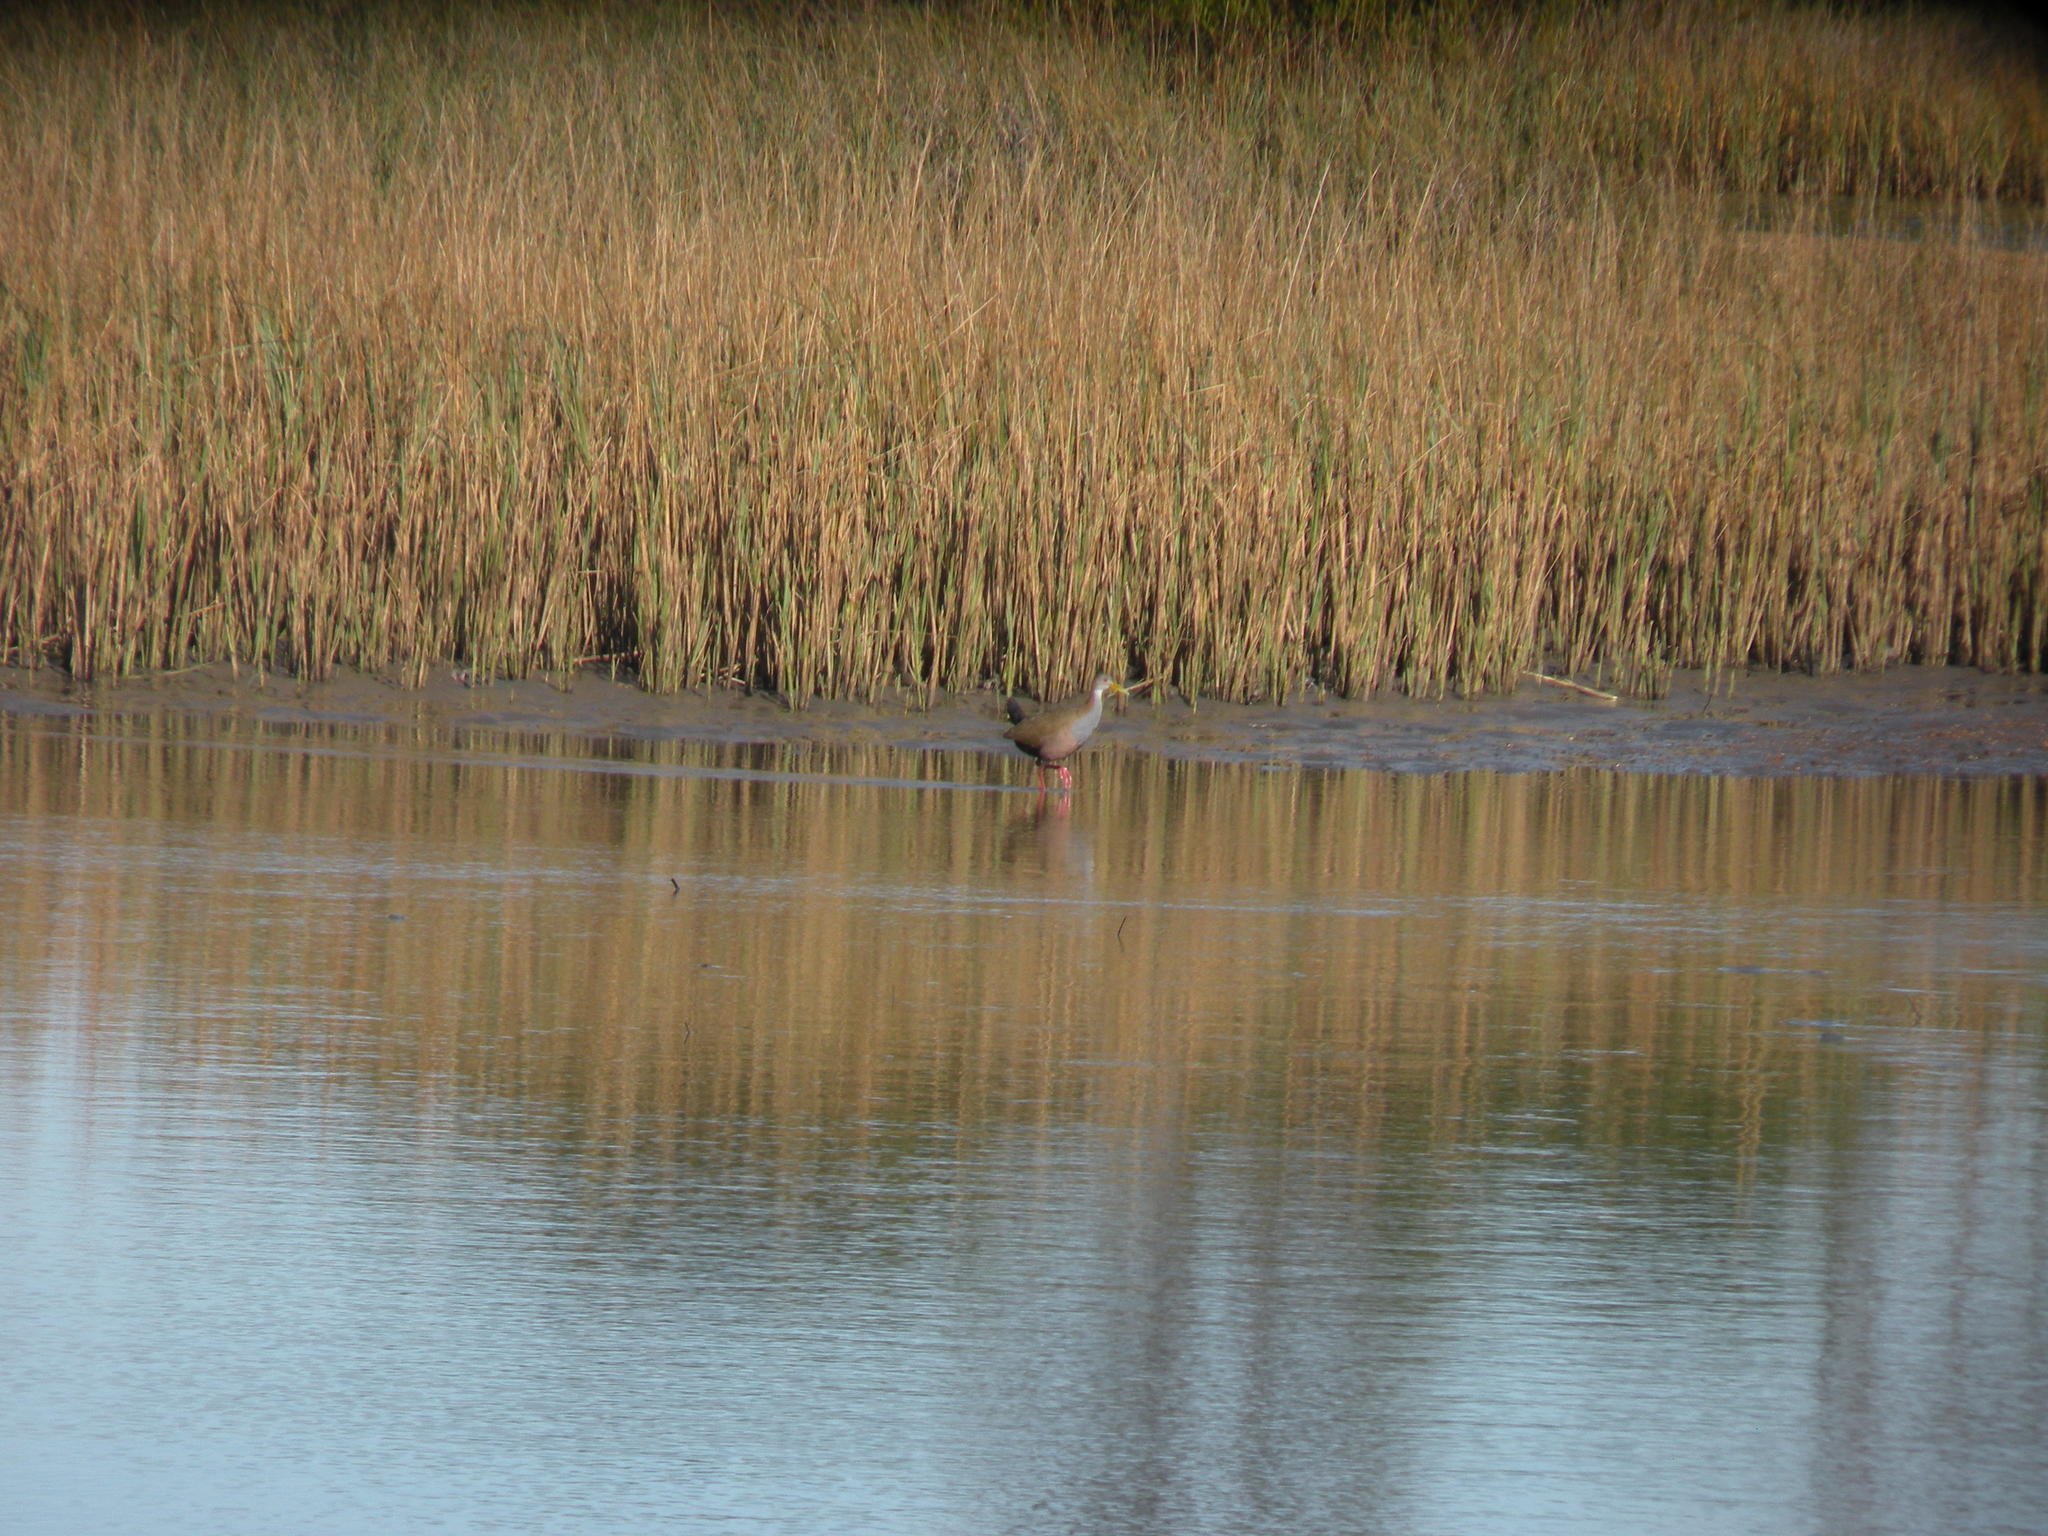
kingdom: Animalia
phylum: Chordata
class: Aves
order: Gruiformes
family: Rallidae
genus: Aramides
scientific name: Aramides ypecaha
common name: Giant wood rail
